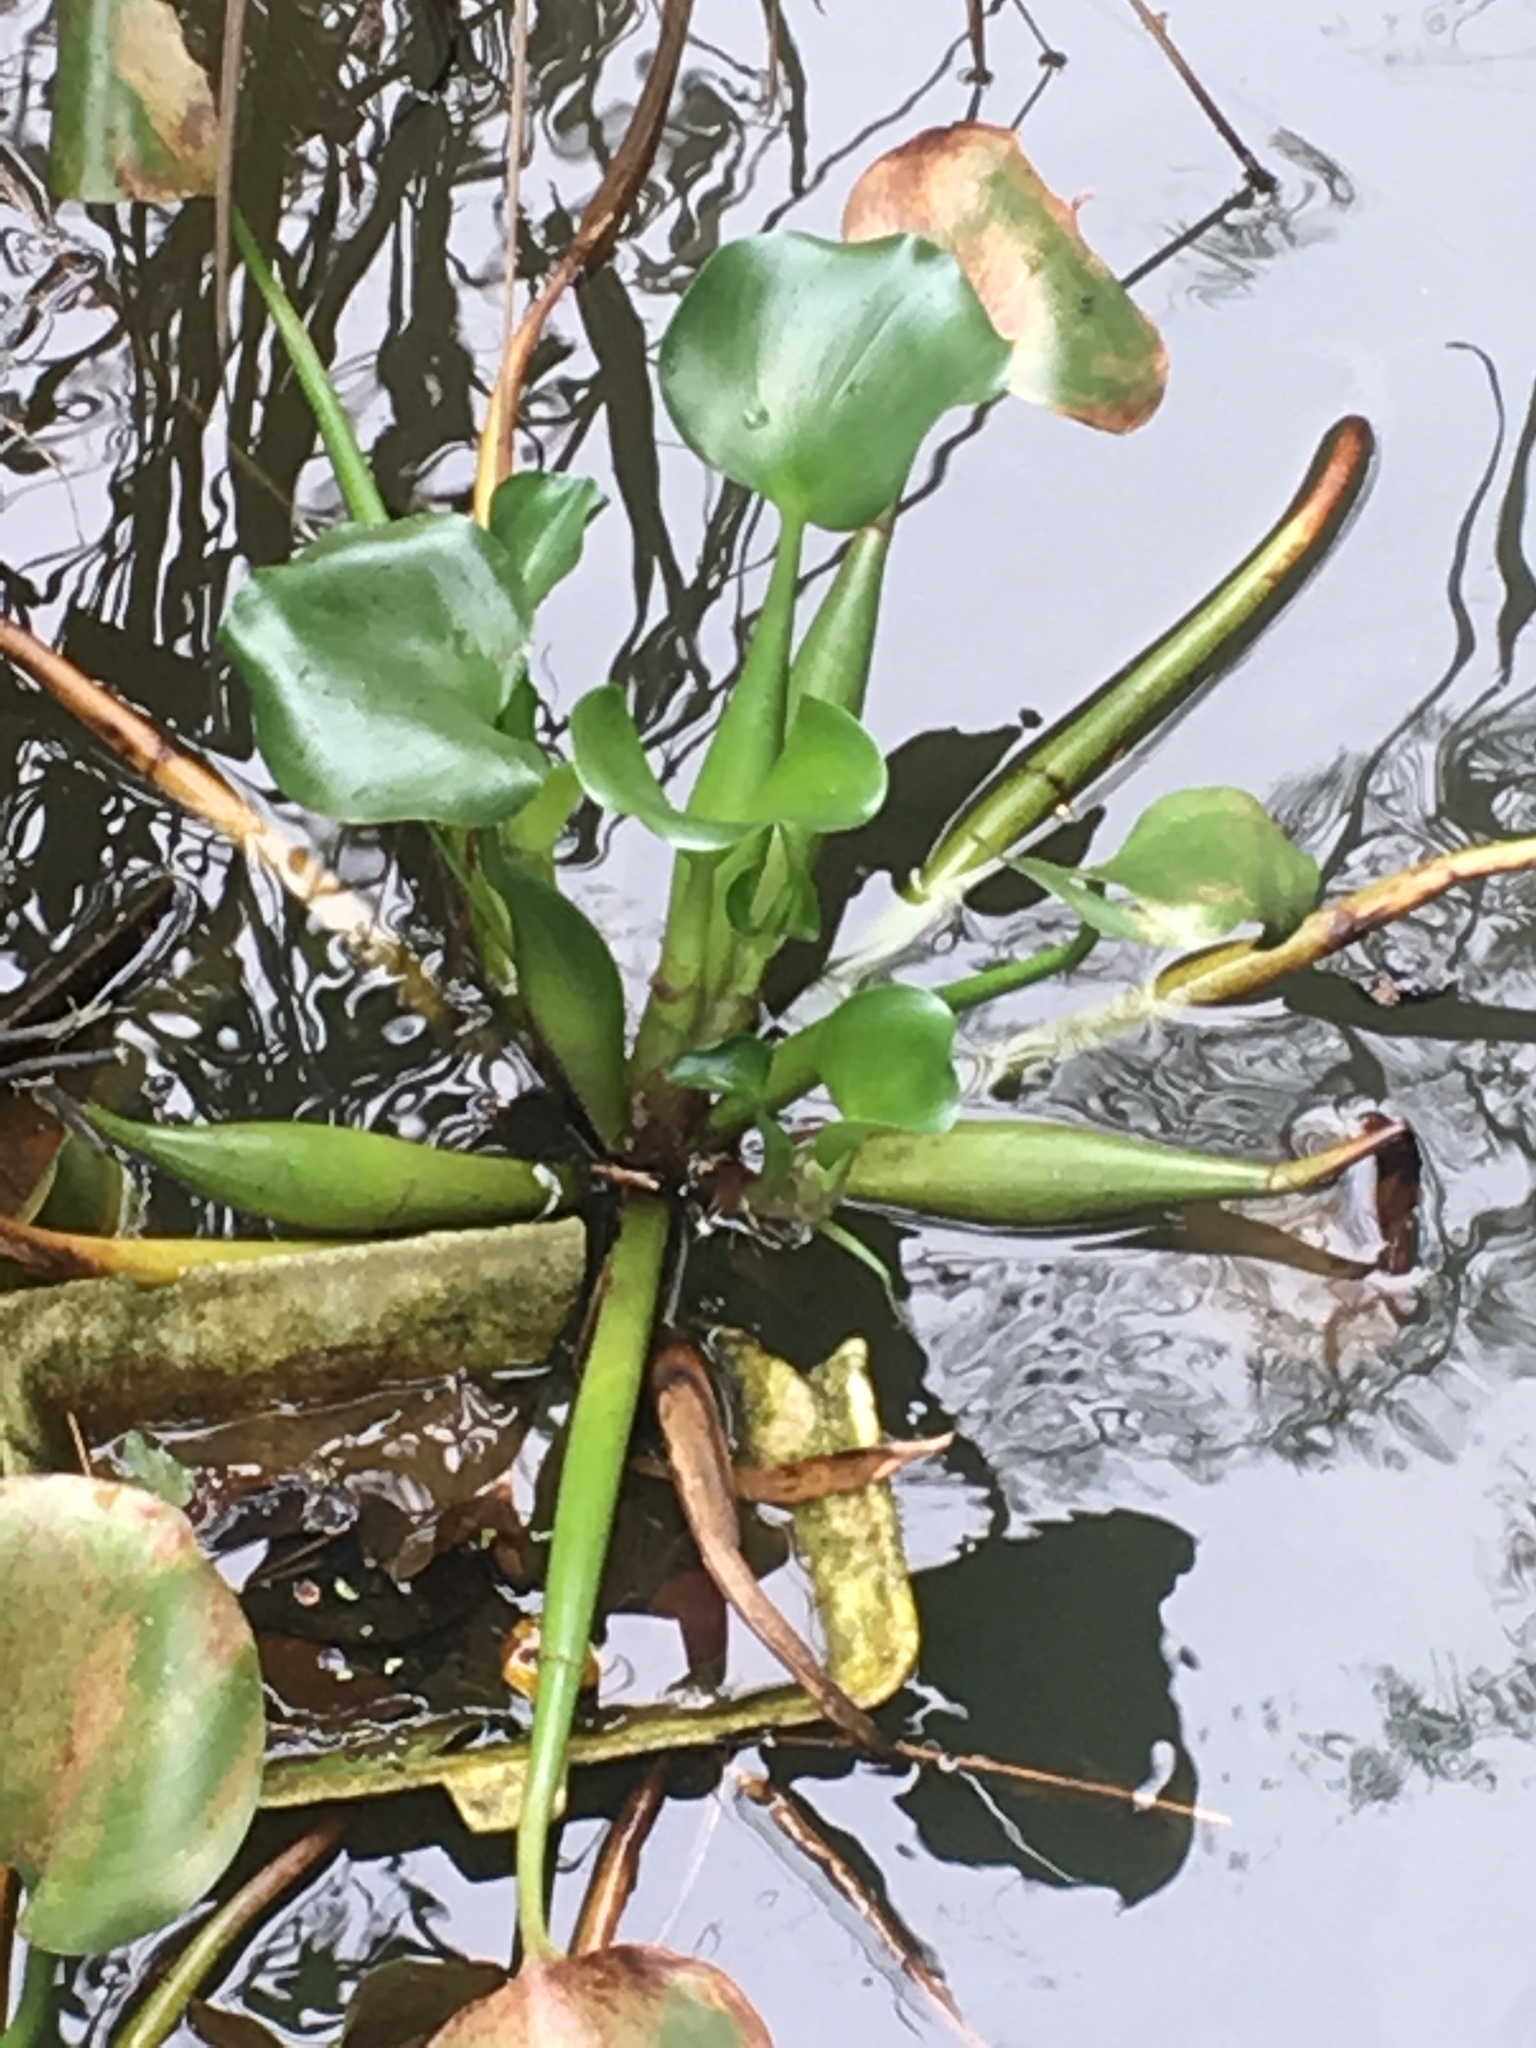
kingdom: Plantae
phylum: Tracheophyta
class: Liliopsida
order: Commelinales
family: Pontederiaceae
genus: Pontederia
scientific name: Pontederia crassipes
